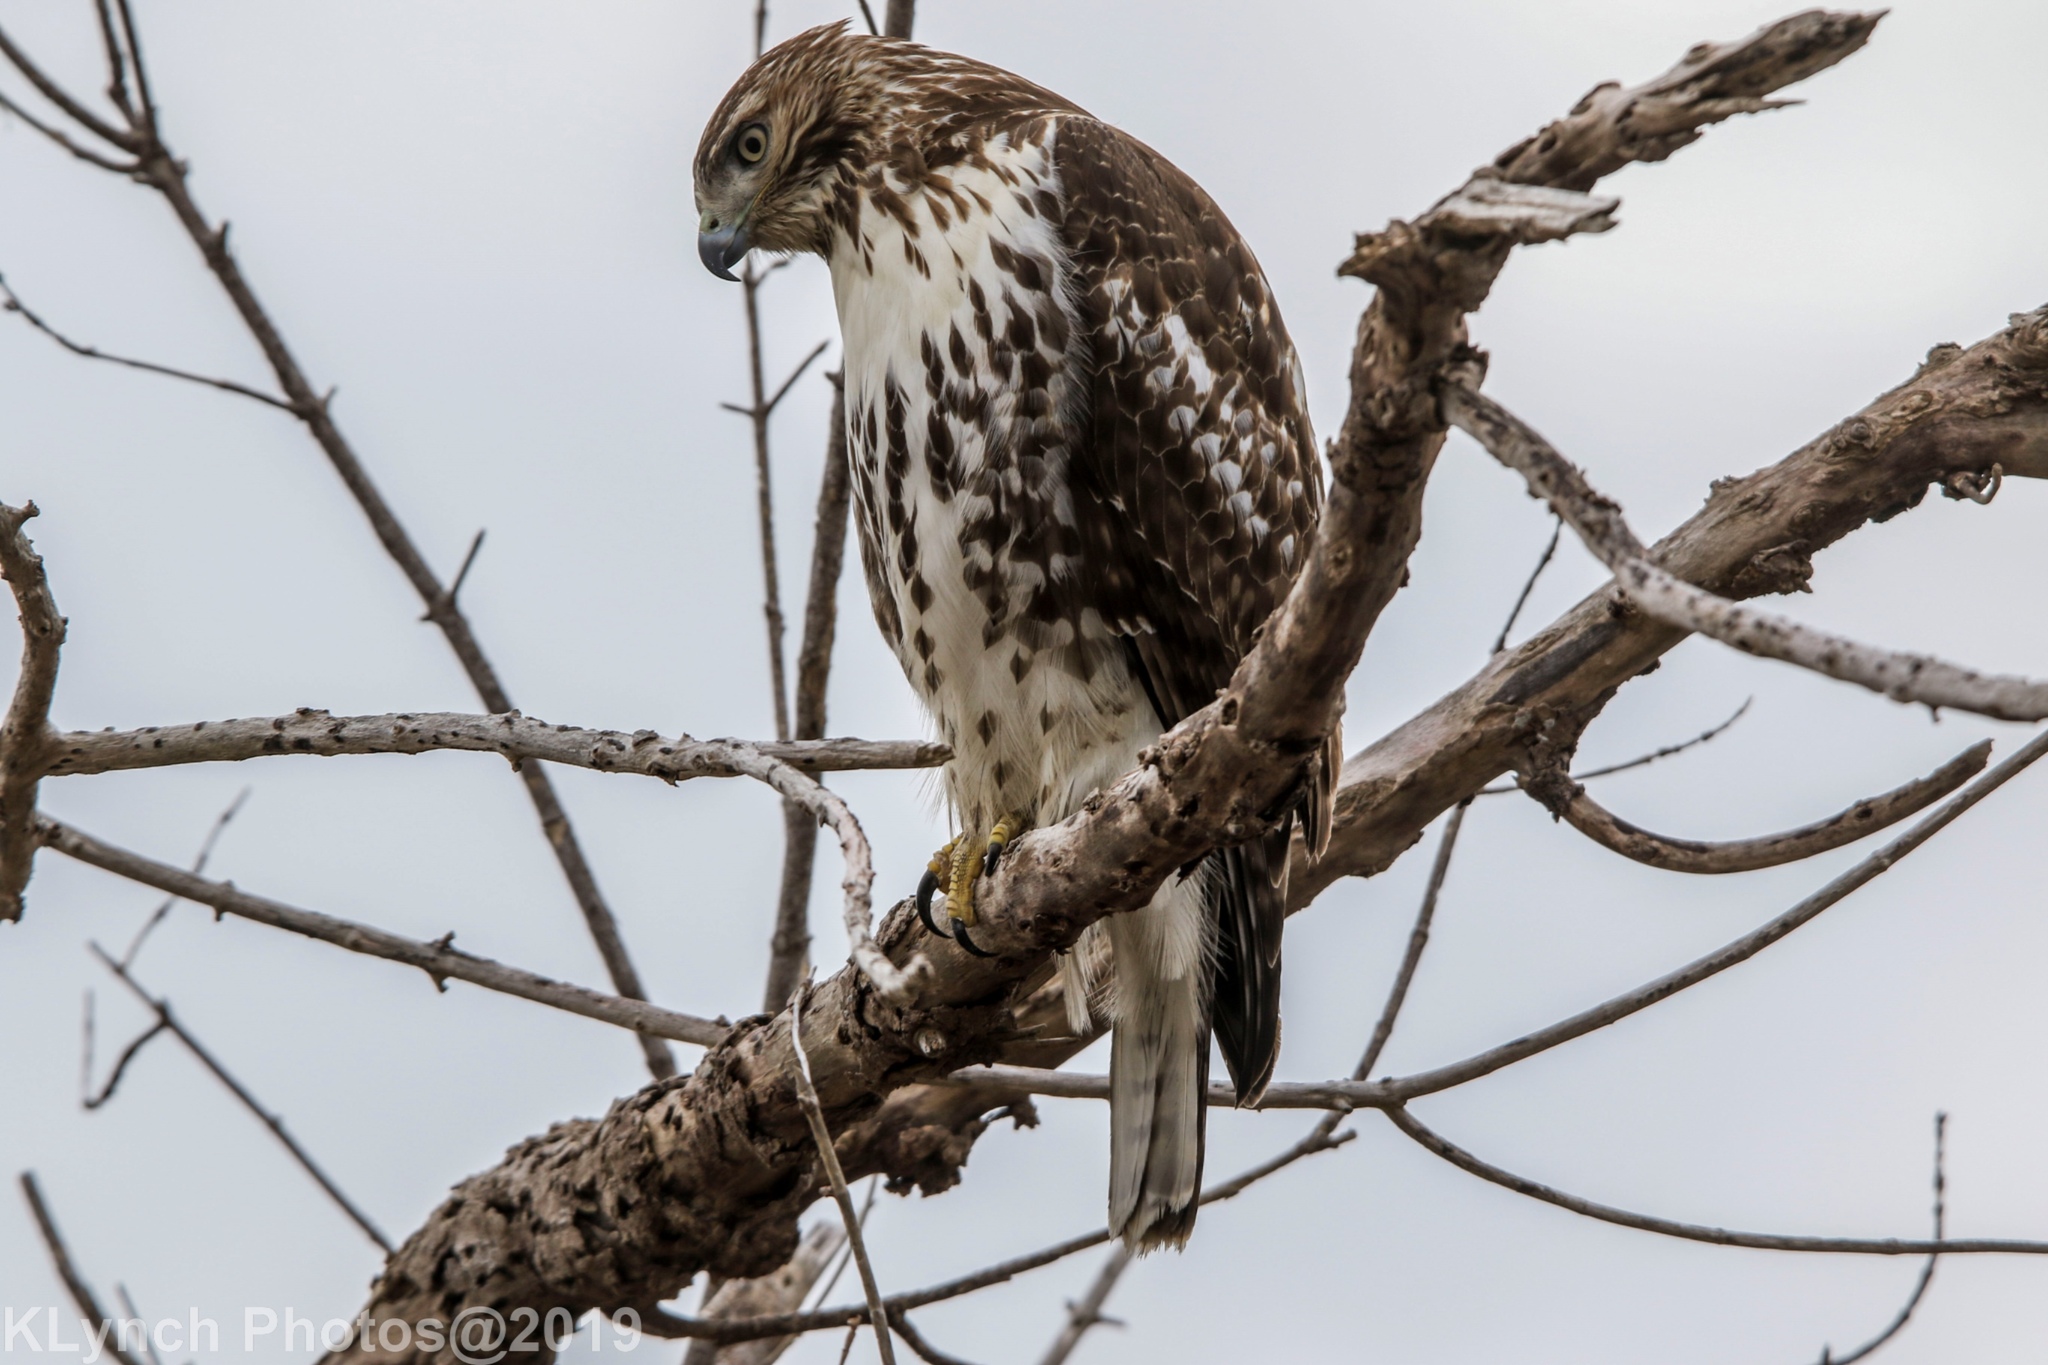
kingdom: Animalia
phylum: Chordata
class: Aves
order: Accipitriformes
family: Accipitridae
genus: Buteo
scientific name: Buteo jamaicensis
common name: Red-tailed hawk
